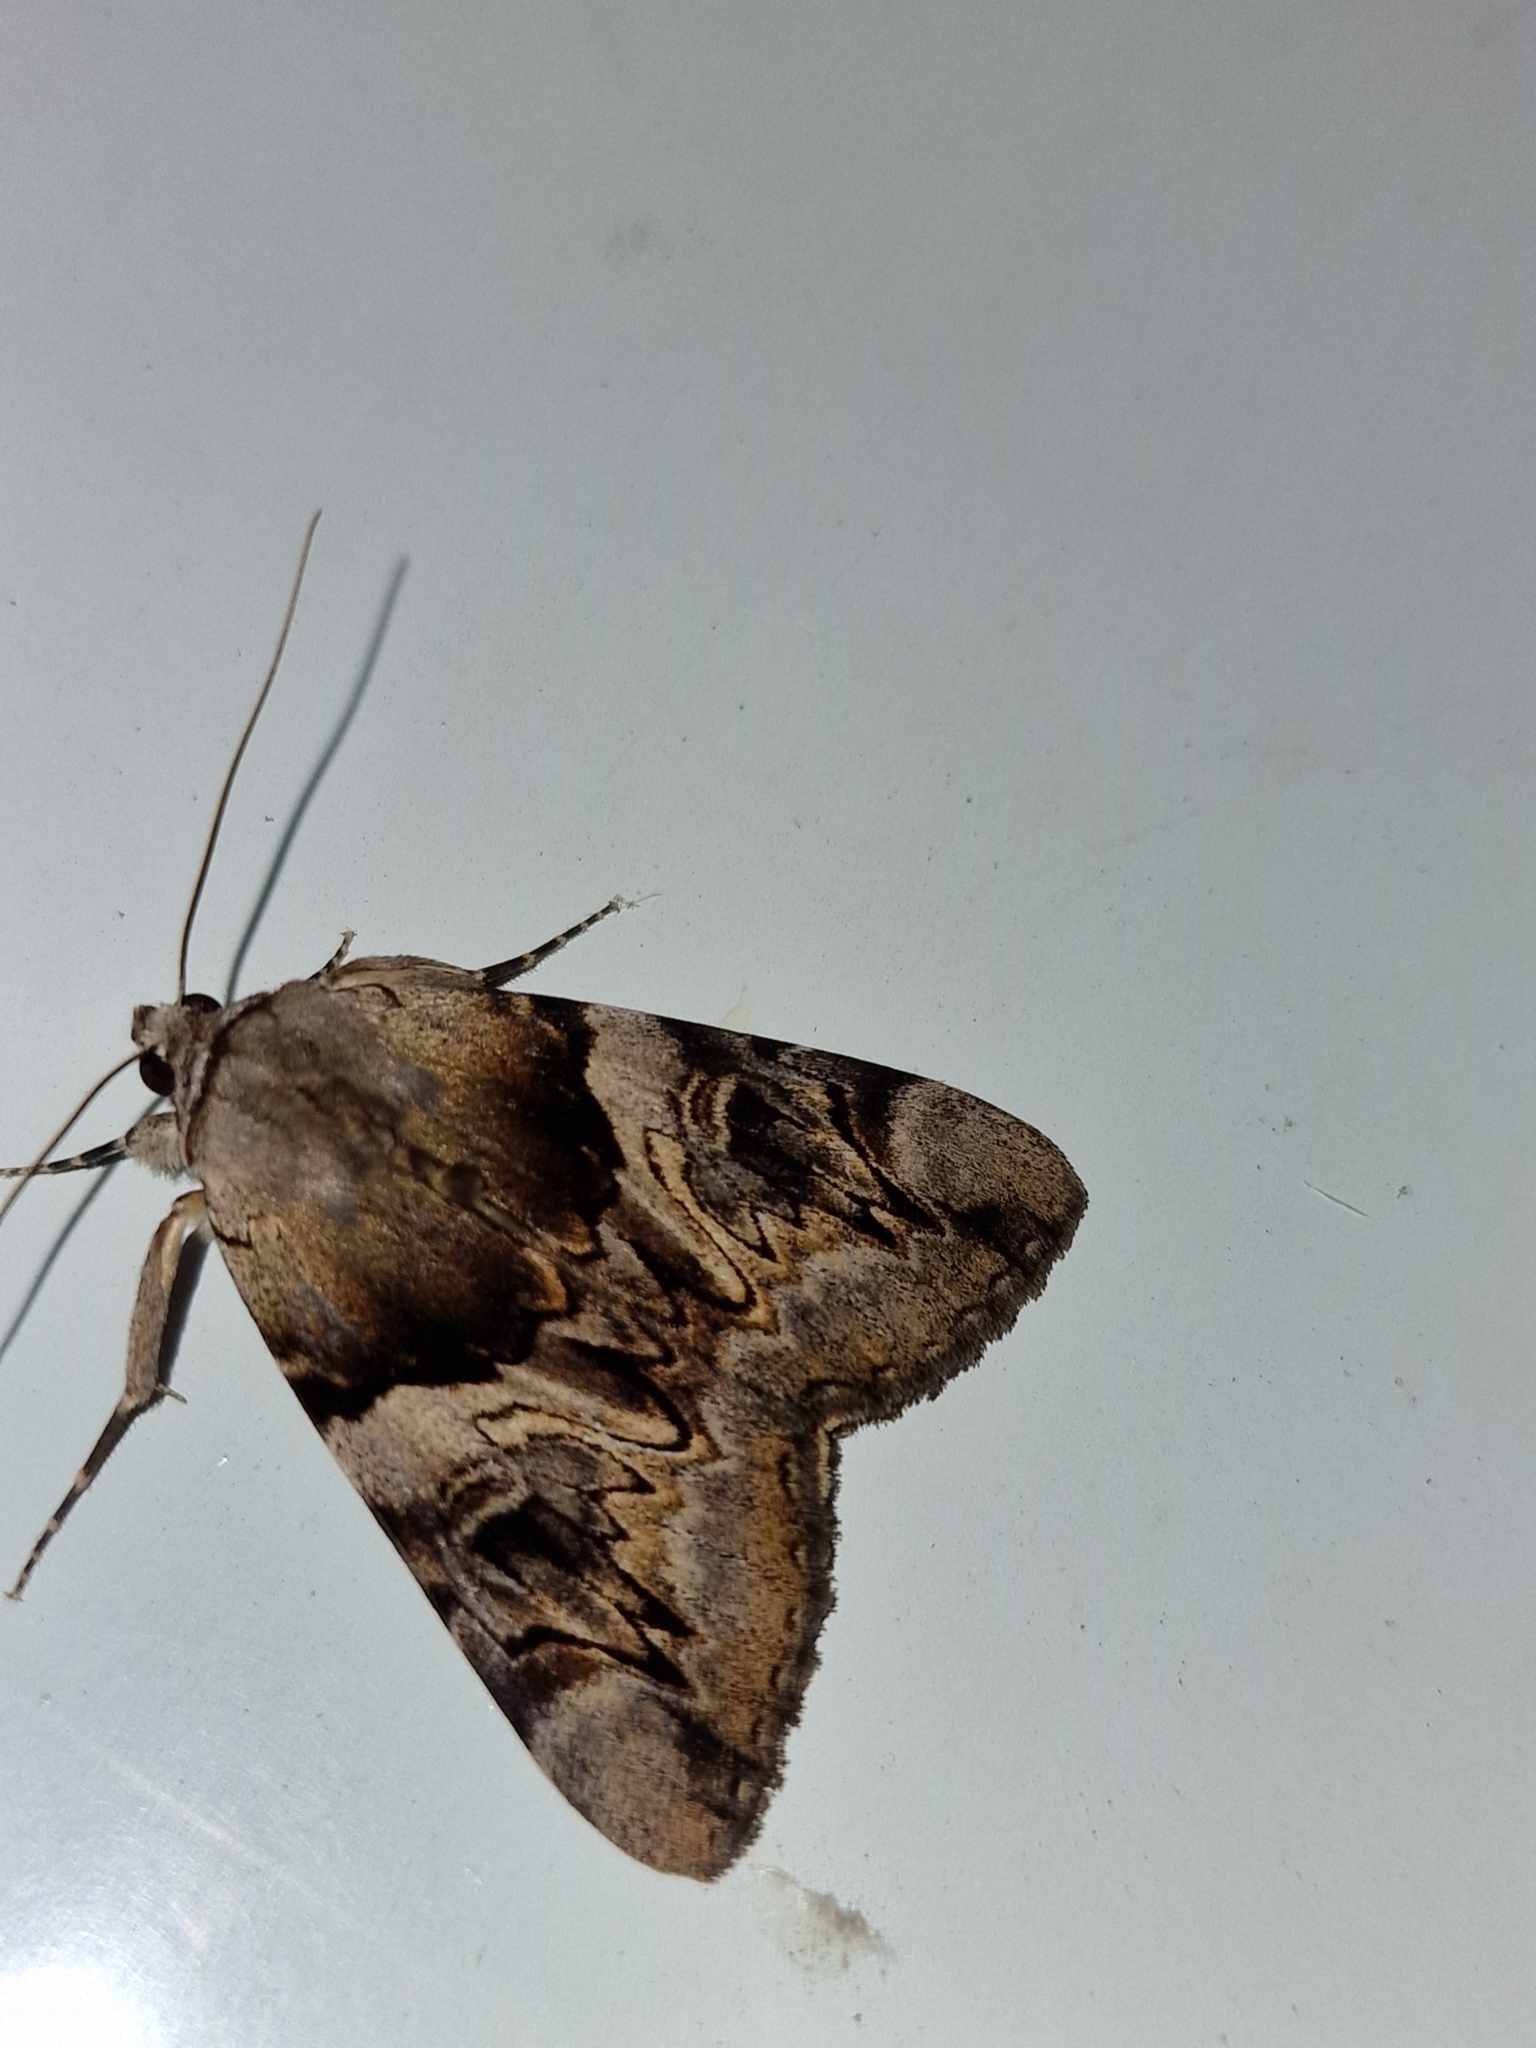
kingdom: Animalia
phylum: Arthropoda
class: Insecta
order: Lepidoptera
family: Erebidae
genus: Catocala
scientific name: Catocala fulminea
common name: Yellow bands underwing
